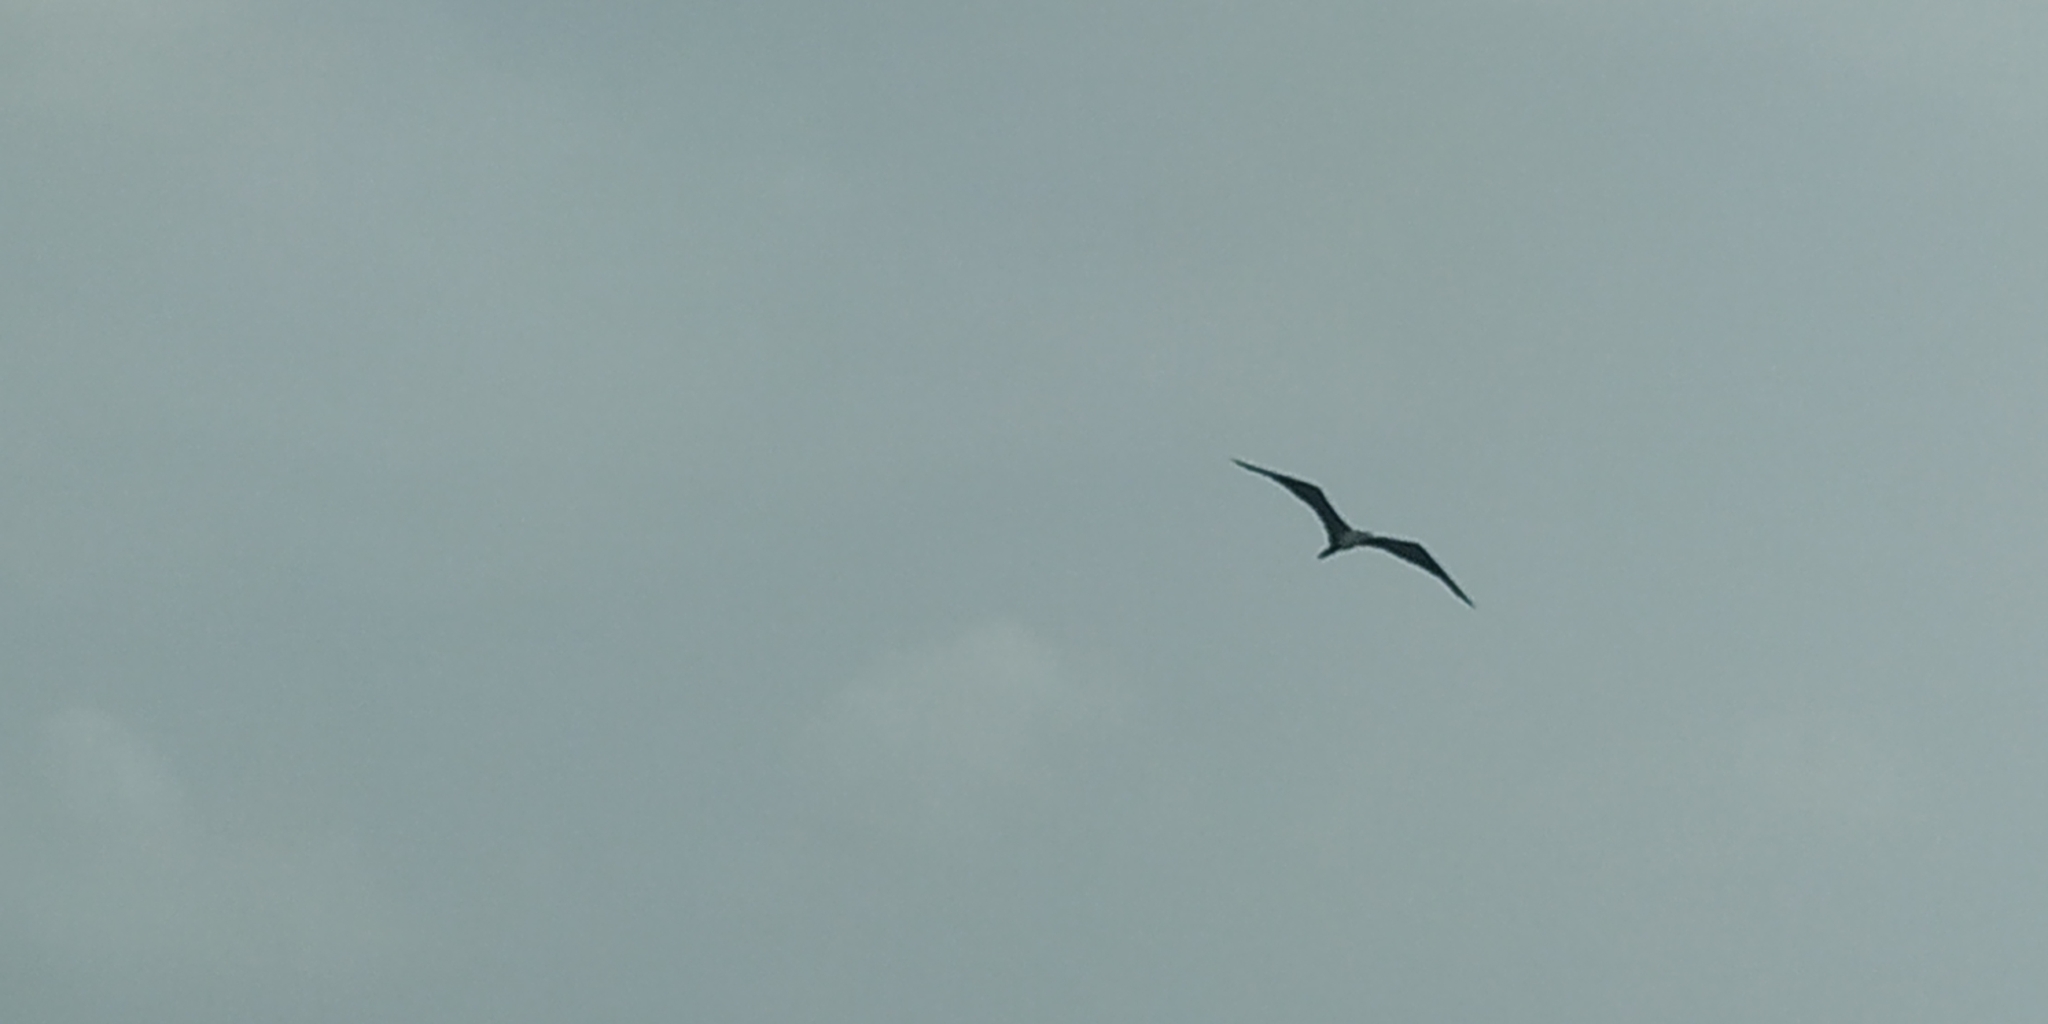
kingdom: Animalia
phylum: Chordata
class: Aves
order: Suliformes
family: Fregatidae
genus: Fregata
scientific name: Fregata magnificens
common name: Magnificent frigatebird
